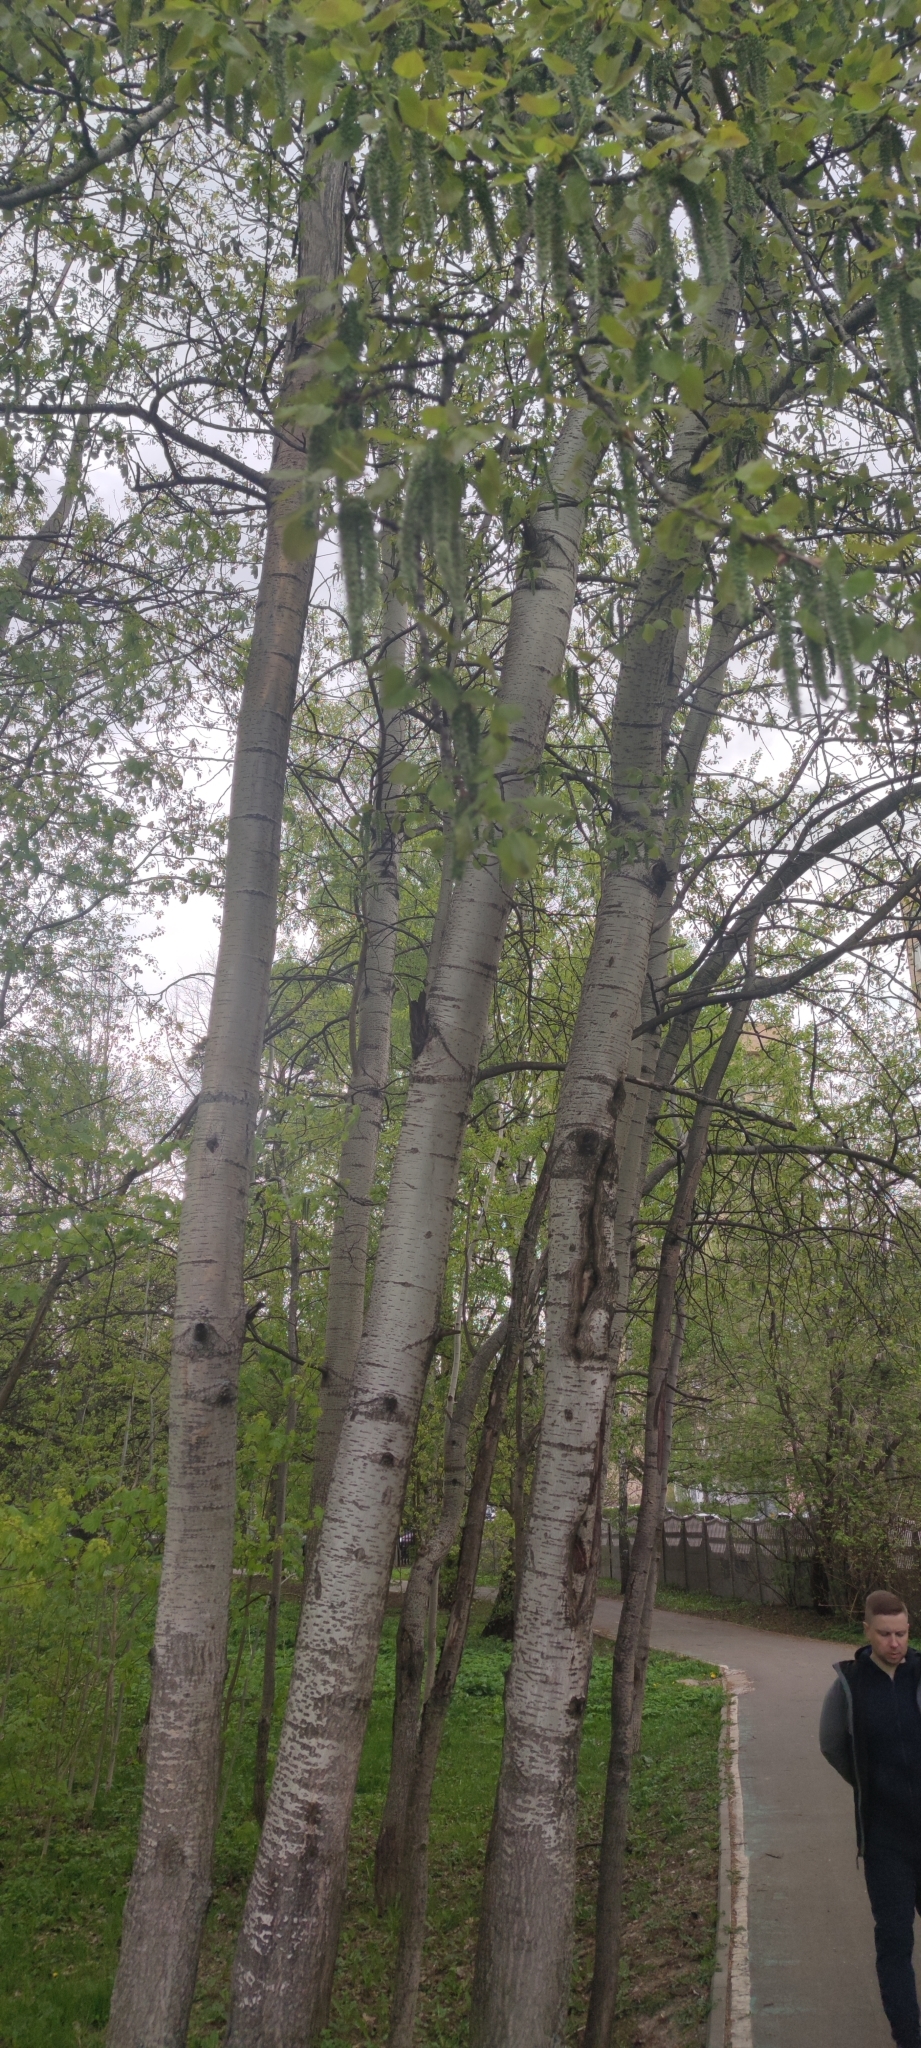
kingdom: Plantae
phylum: Tracheophyta
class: Magnoliopsida
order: Malpighiales
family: Salicaceae
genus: Populus
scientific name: Populus tremula
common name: European aspen
